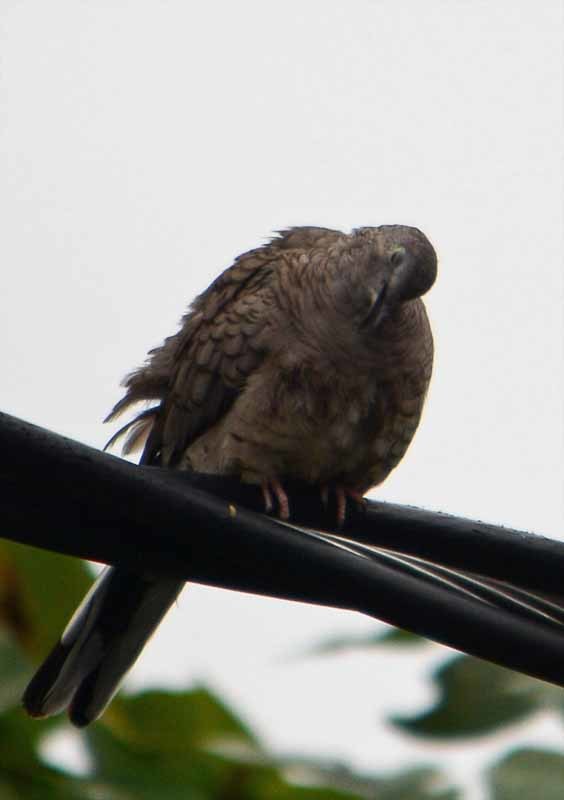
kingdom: Animalia
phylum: Chordata
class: Aves
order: Columbiformes
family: Columbidae
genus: Columbina
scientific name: Columbina inca
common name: Inca dove
